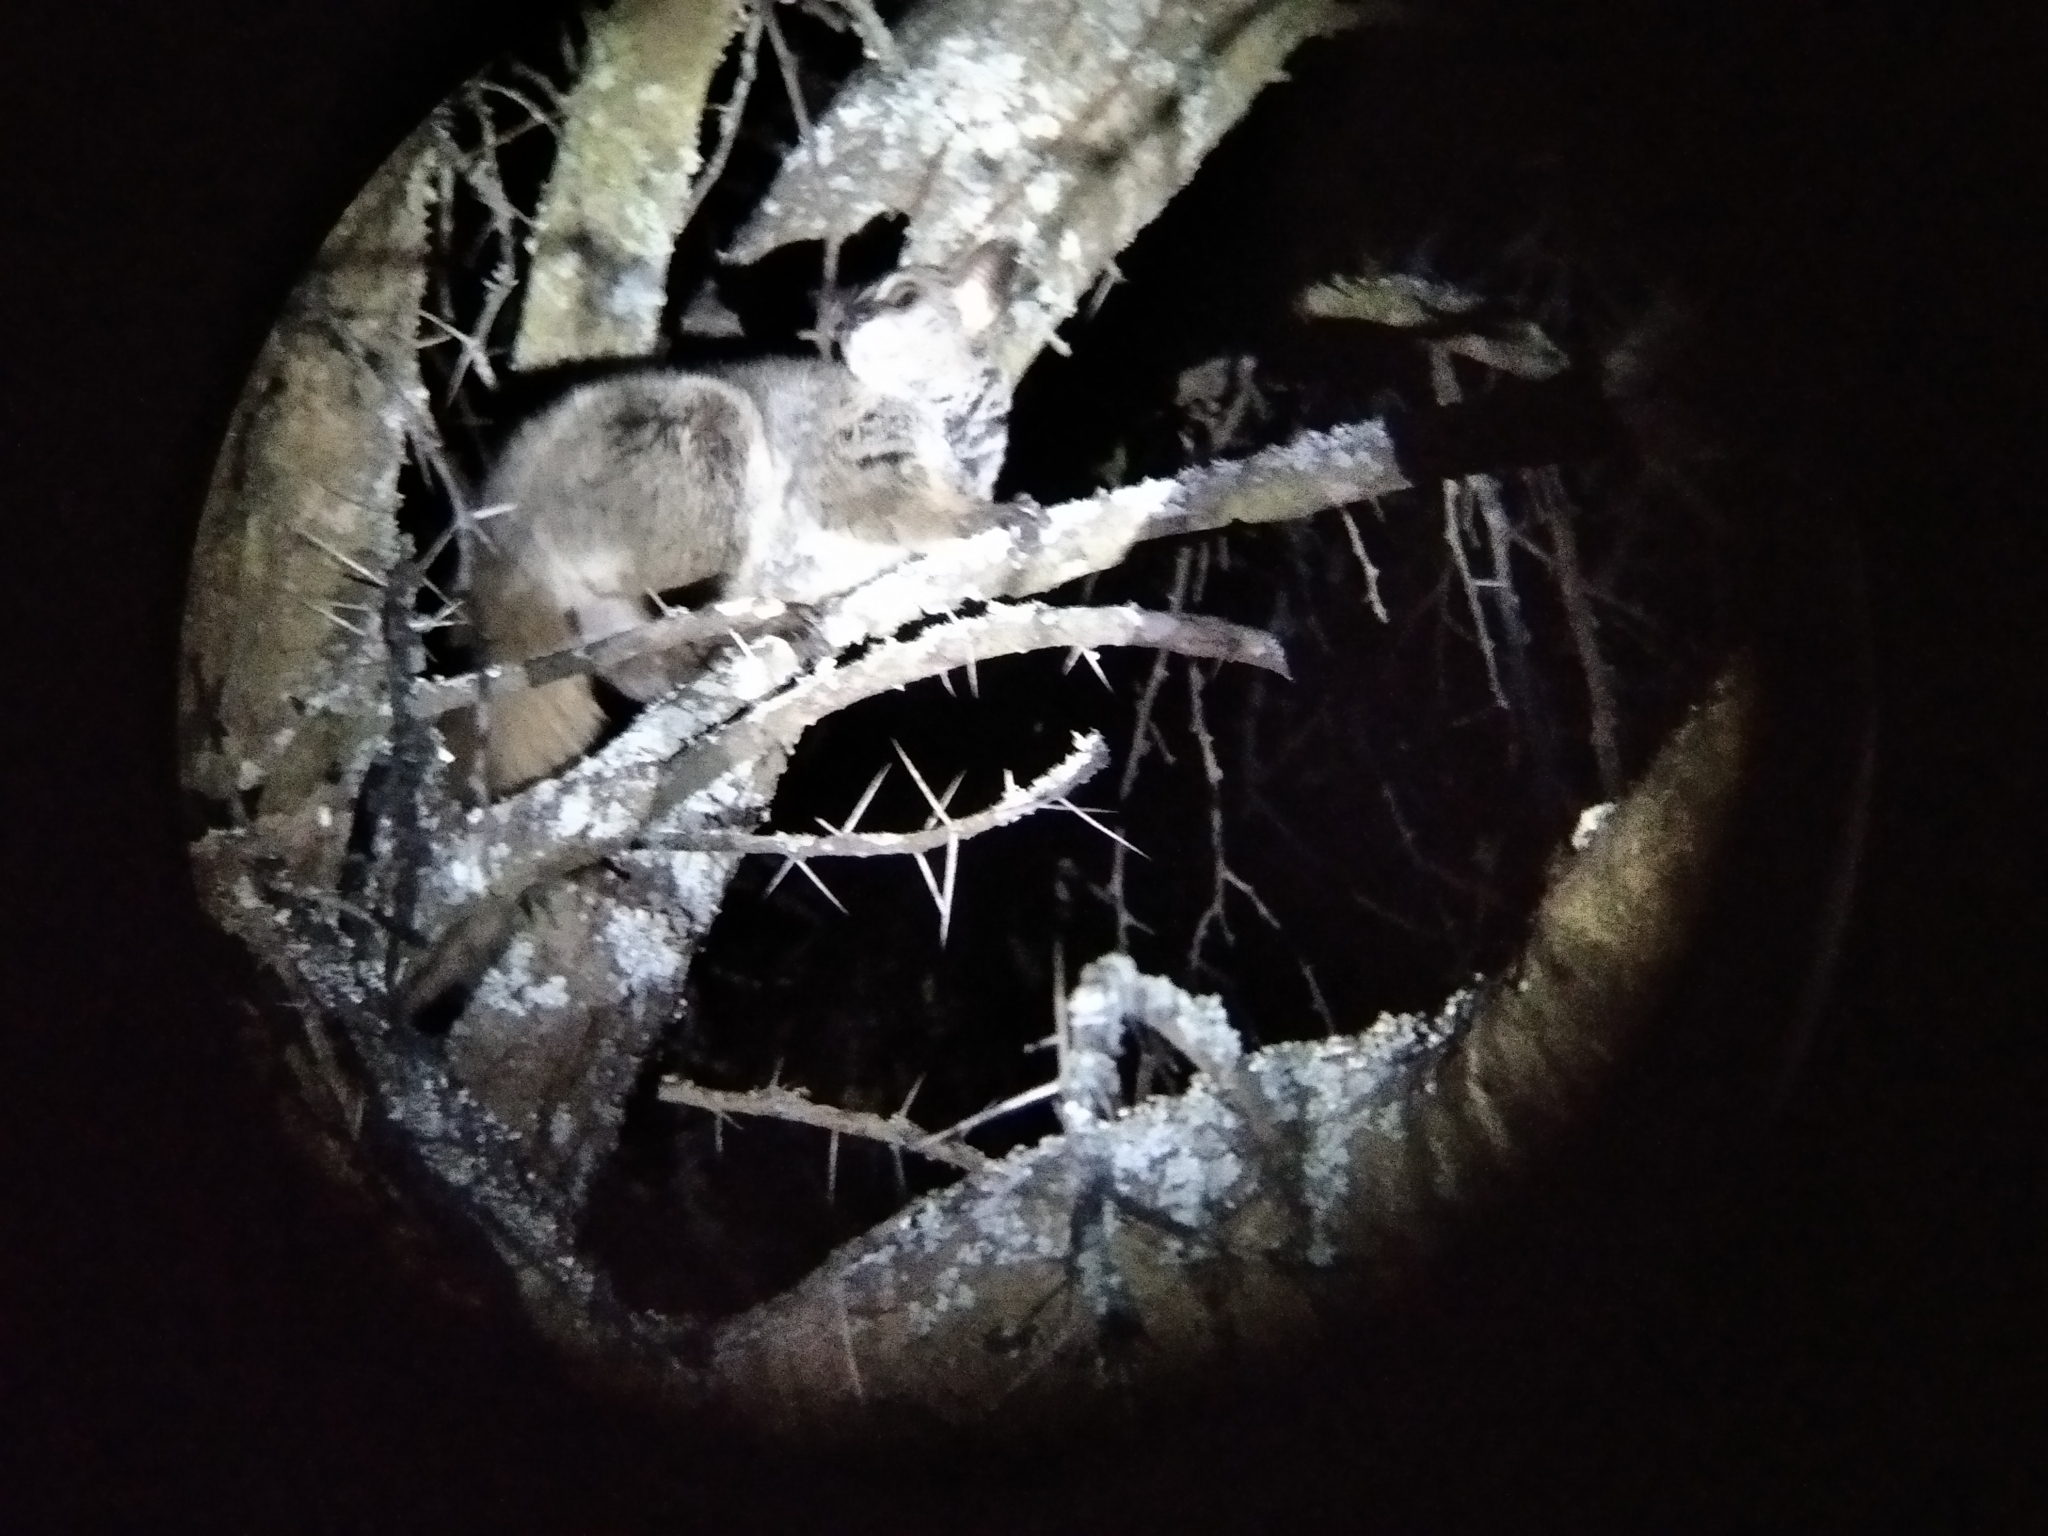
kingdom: Animalia
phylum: Chordata
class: Mammalia
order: Primates
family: Galagidae
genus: Otolemur
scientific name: Otolemur crassicaudatus
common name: Brown greater galago
